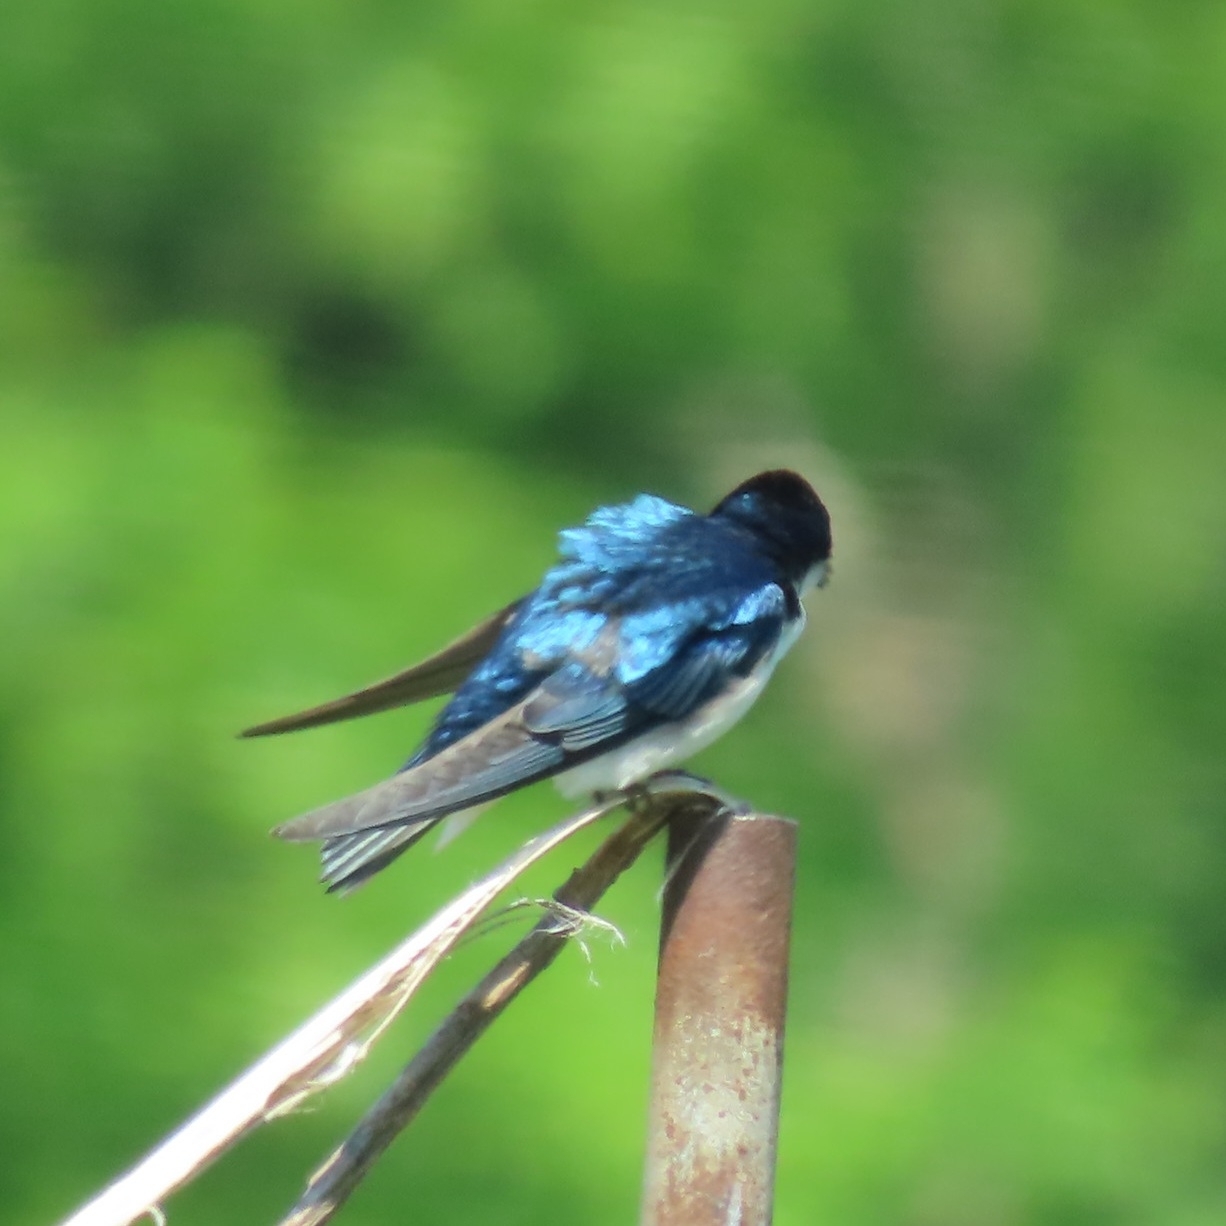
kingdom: Animalia
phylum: Chordata
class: Aves
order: Passeriformes
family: Hirundinidae
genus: Tachycineta
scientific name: Tachycineta bicolor
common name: Tree swallow
